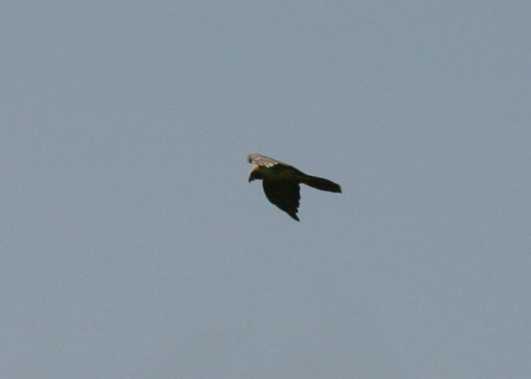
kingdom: Animalia
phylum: Chordata
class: Aves
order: Accipitriformes
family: Accipitridae
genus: Gypaetus
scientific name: Gypaetus barbatus
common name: Bearded vulture
